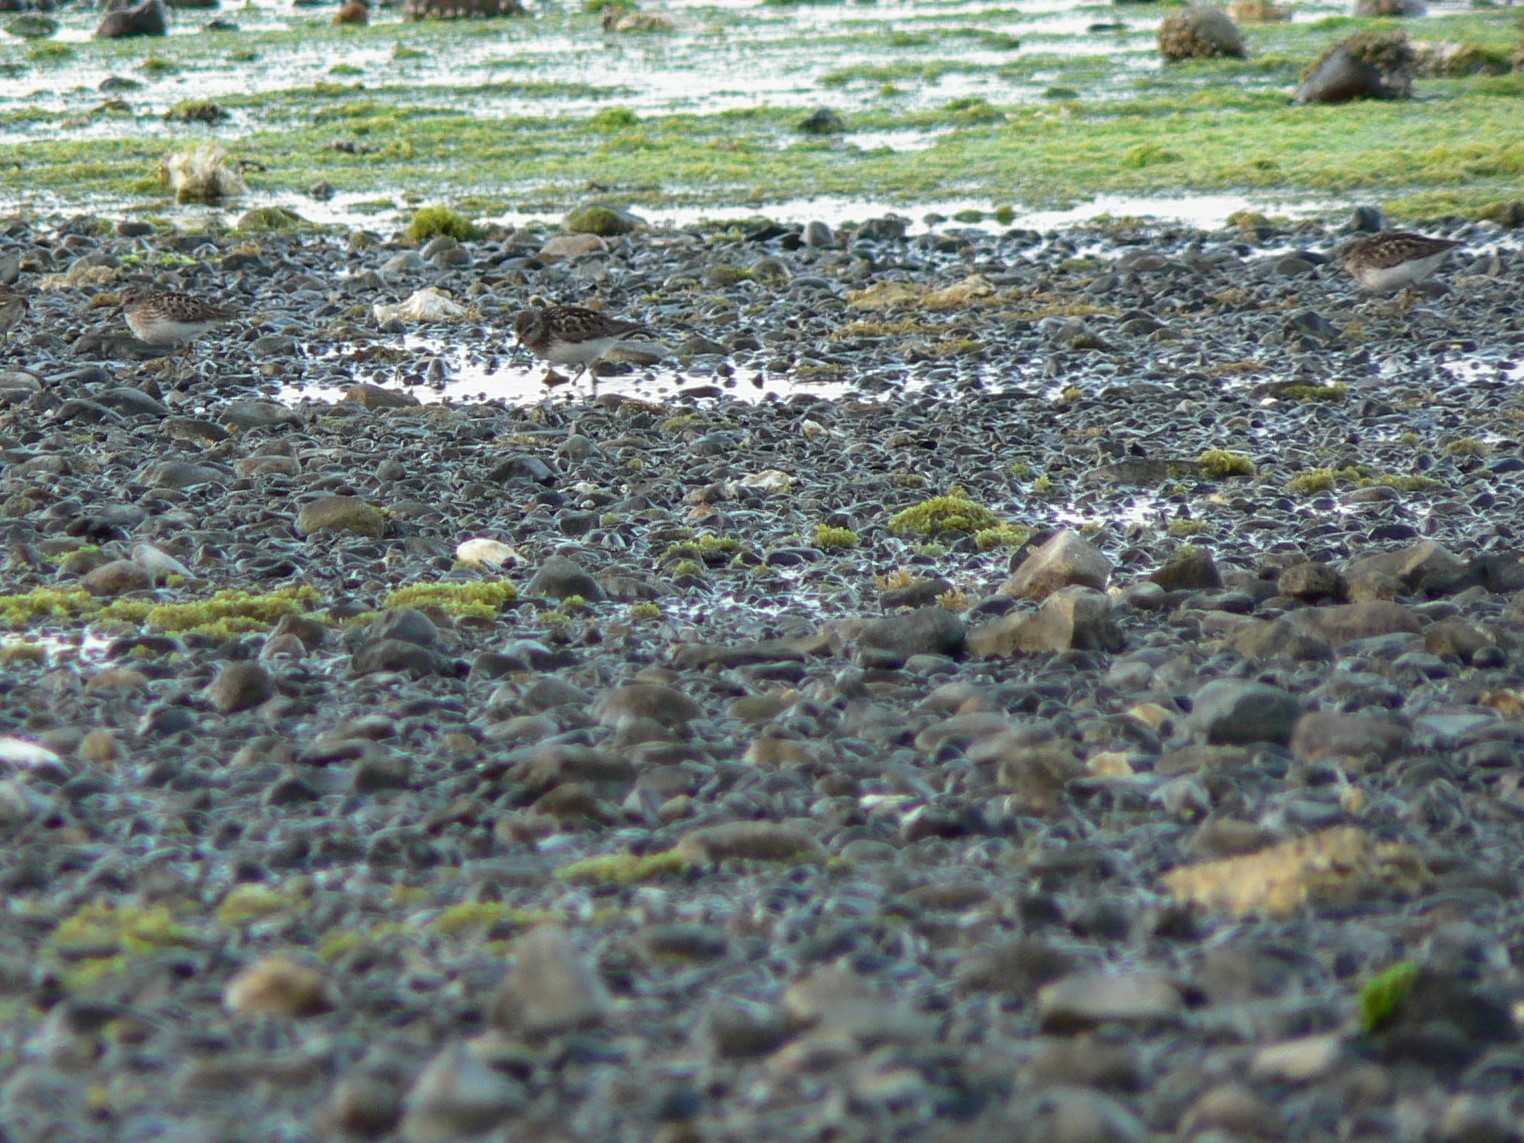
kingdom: Animalia
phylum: Chordata
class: Aves
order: Charadriiformes
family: Scolopacidae
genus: Calidris
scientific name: Calidris minutilla
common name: Least sandpiper
